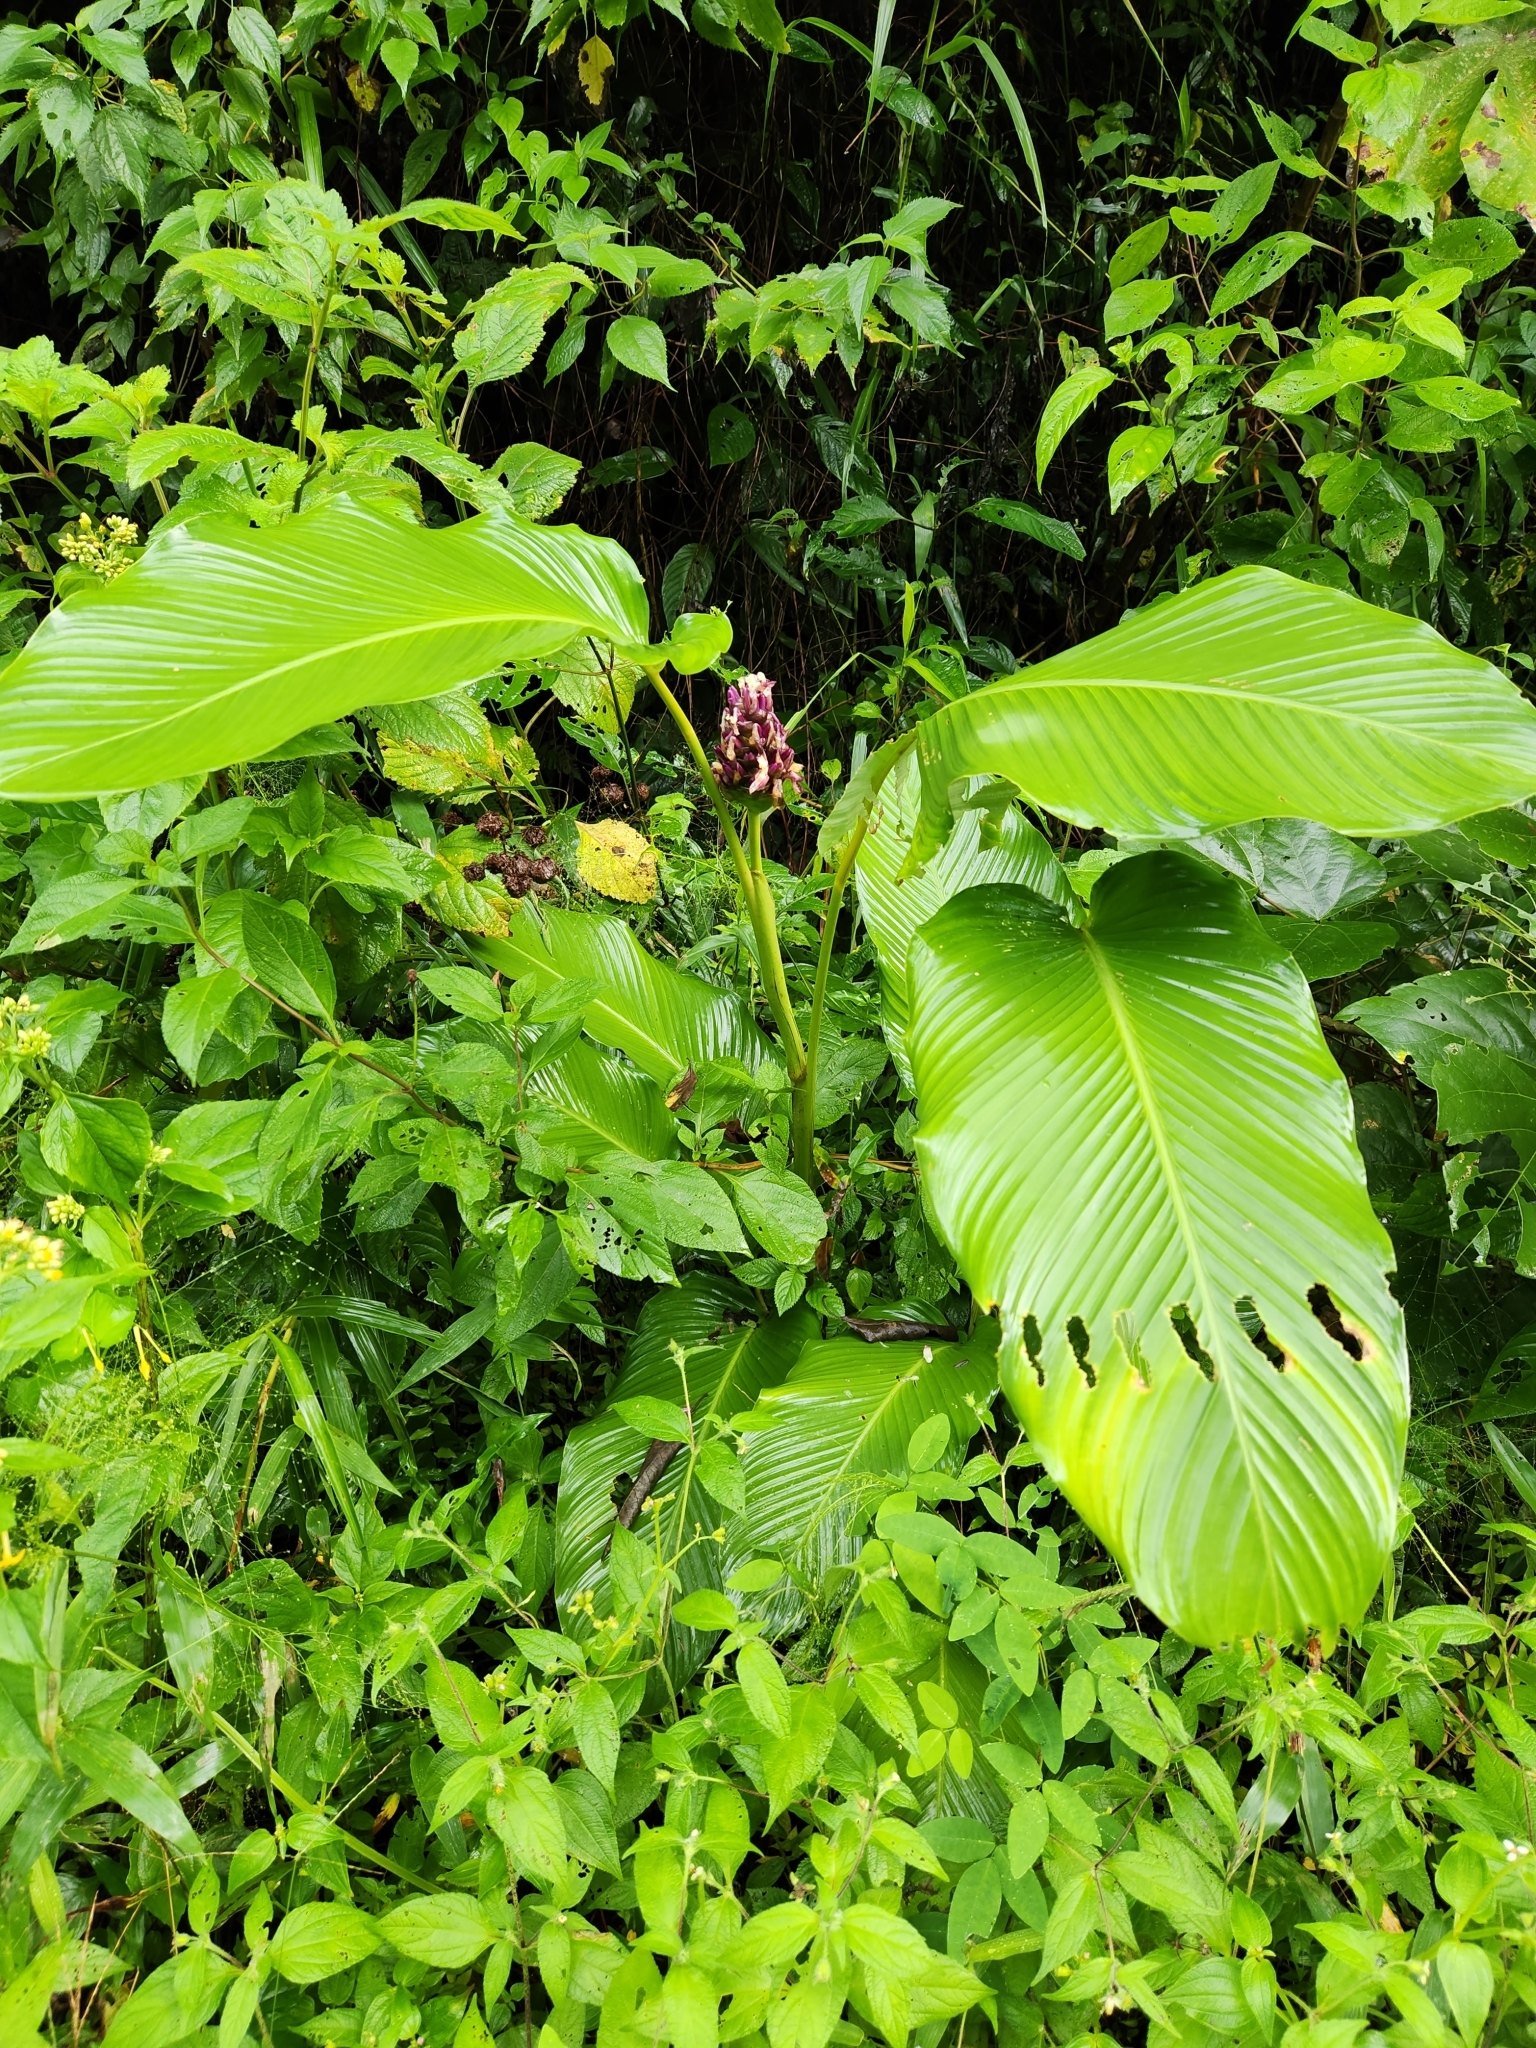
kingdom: Plantae
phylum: Tracheophyta
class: Liliopsida
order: Zingiberales
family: Marantaceae
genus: Goeppertia
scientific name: Goeppertia latifolia
